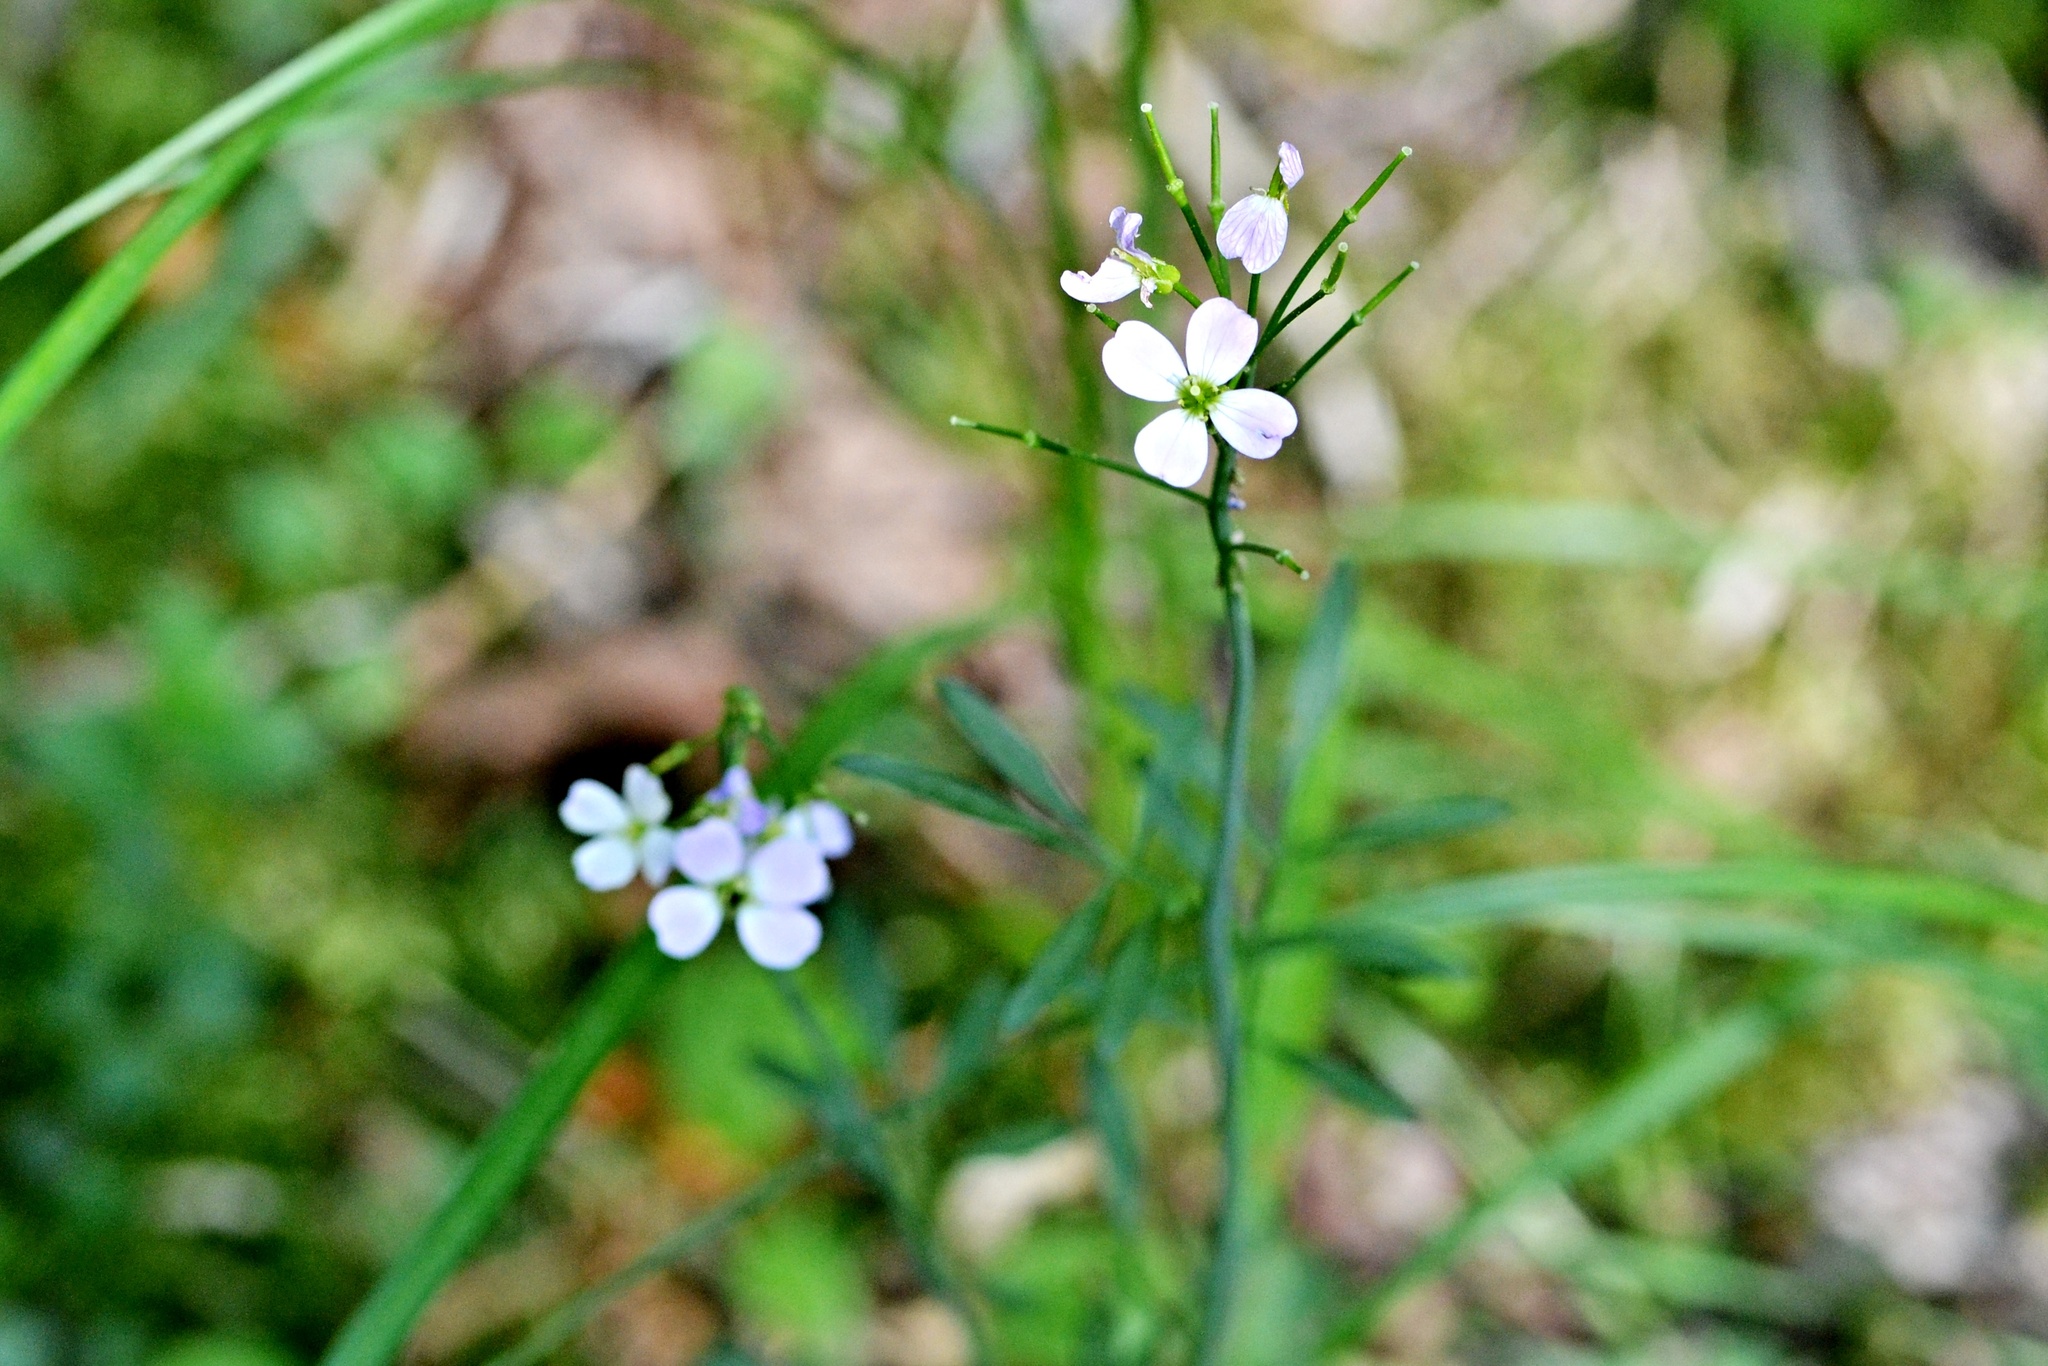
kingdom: Plantae
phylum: Tracheophyta
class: Magnoliopsida
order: Brassicales
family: Brassicaceae
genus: Cardamine
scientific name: Cardamine pratensis
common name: Cuckoo flower
